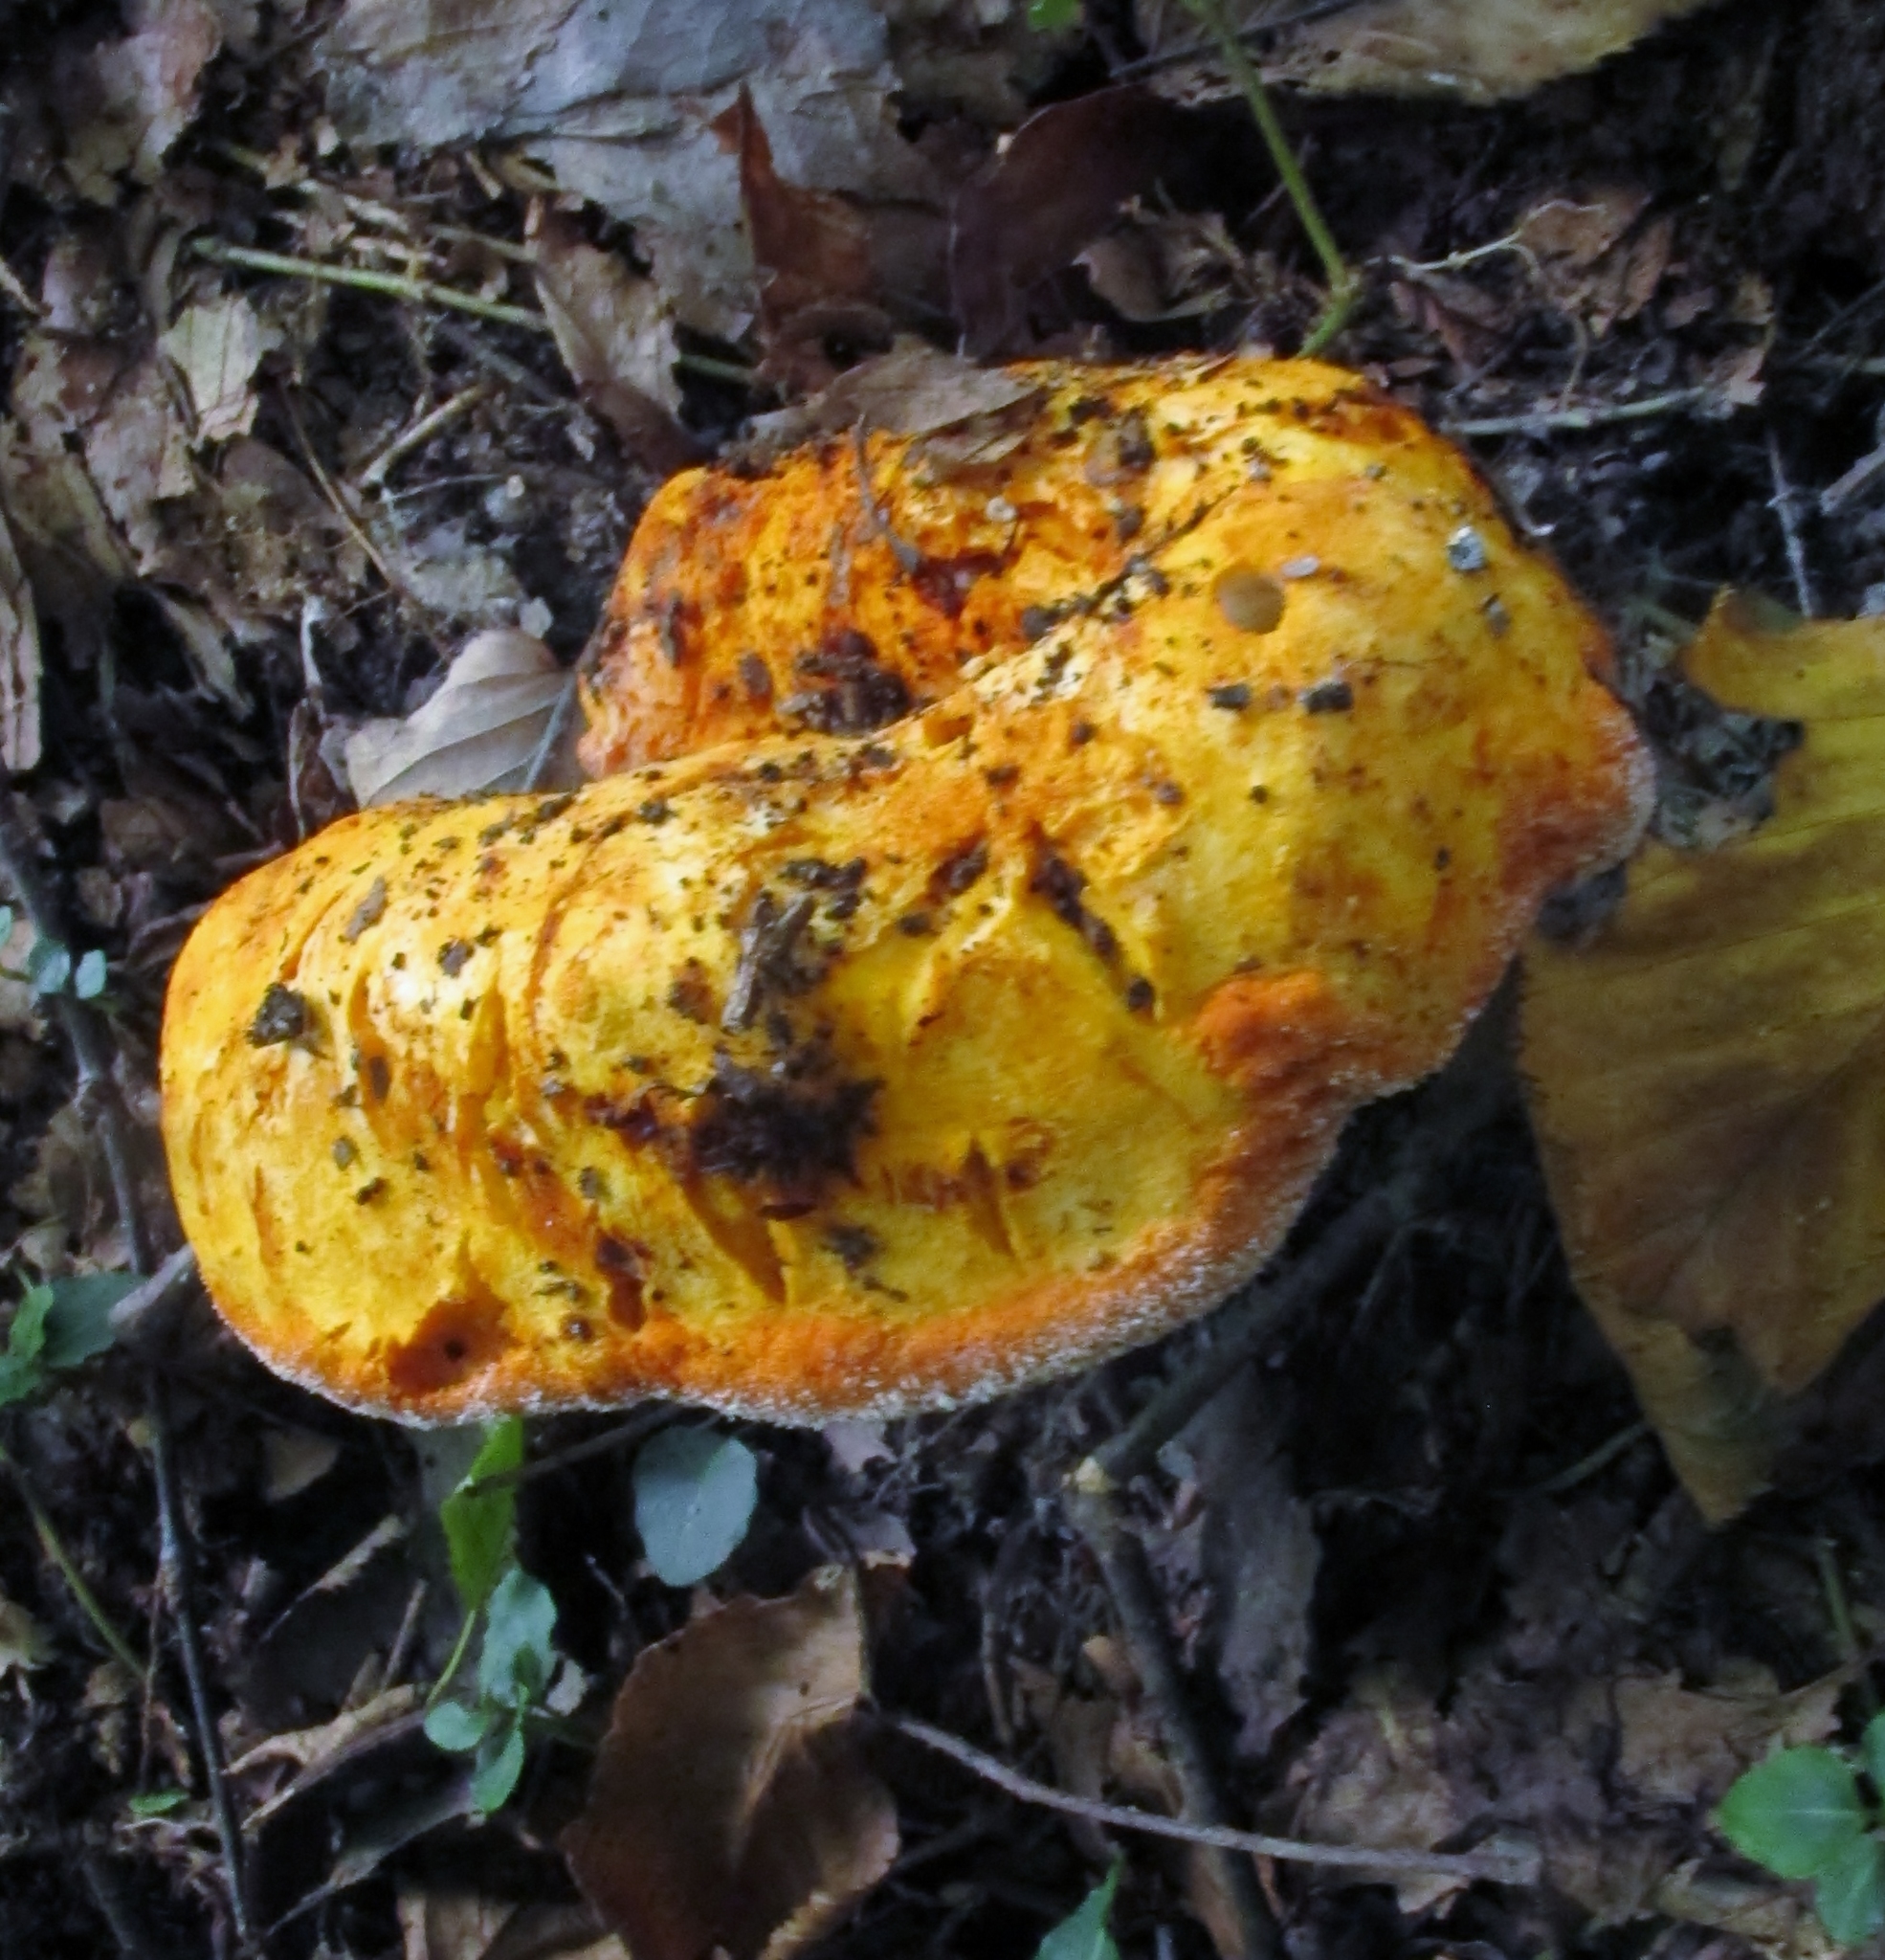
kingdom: Fungi
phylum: Ascomycota
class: Sordariomycetes
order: Hypocreales
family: Hypocreaceae
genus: Hypomyces
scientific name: Hypomyces lactifluorum
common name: Lobster mushroom
